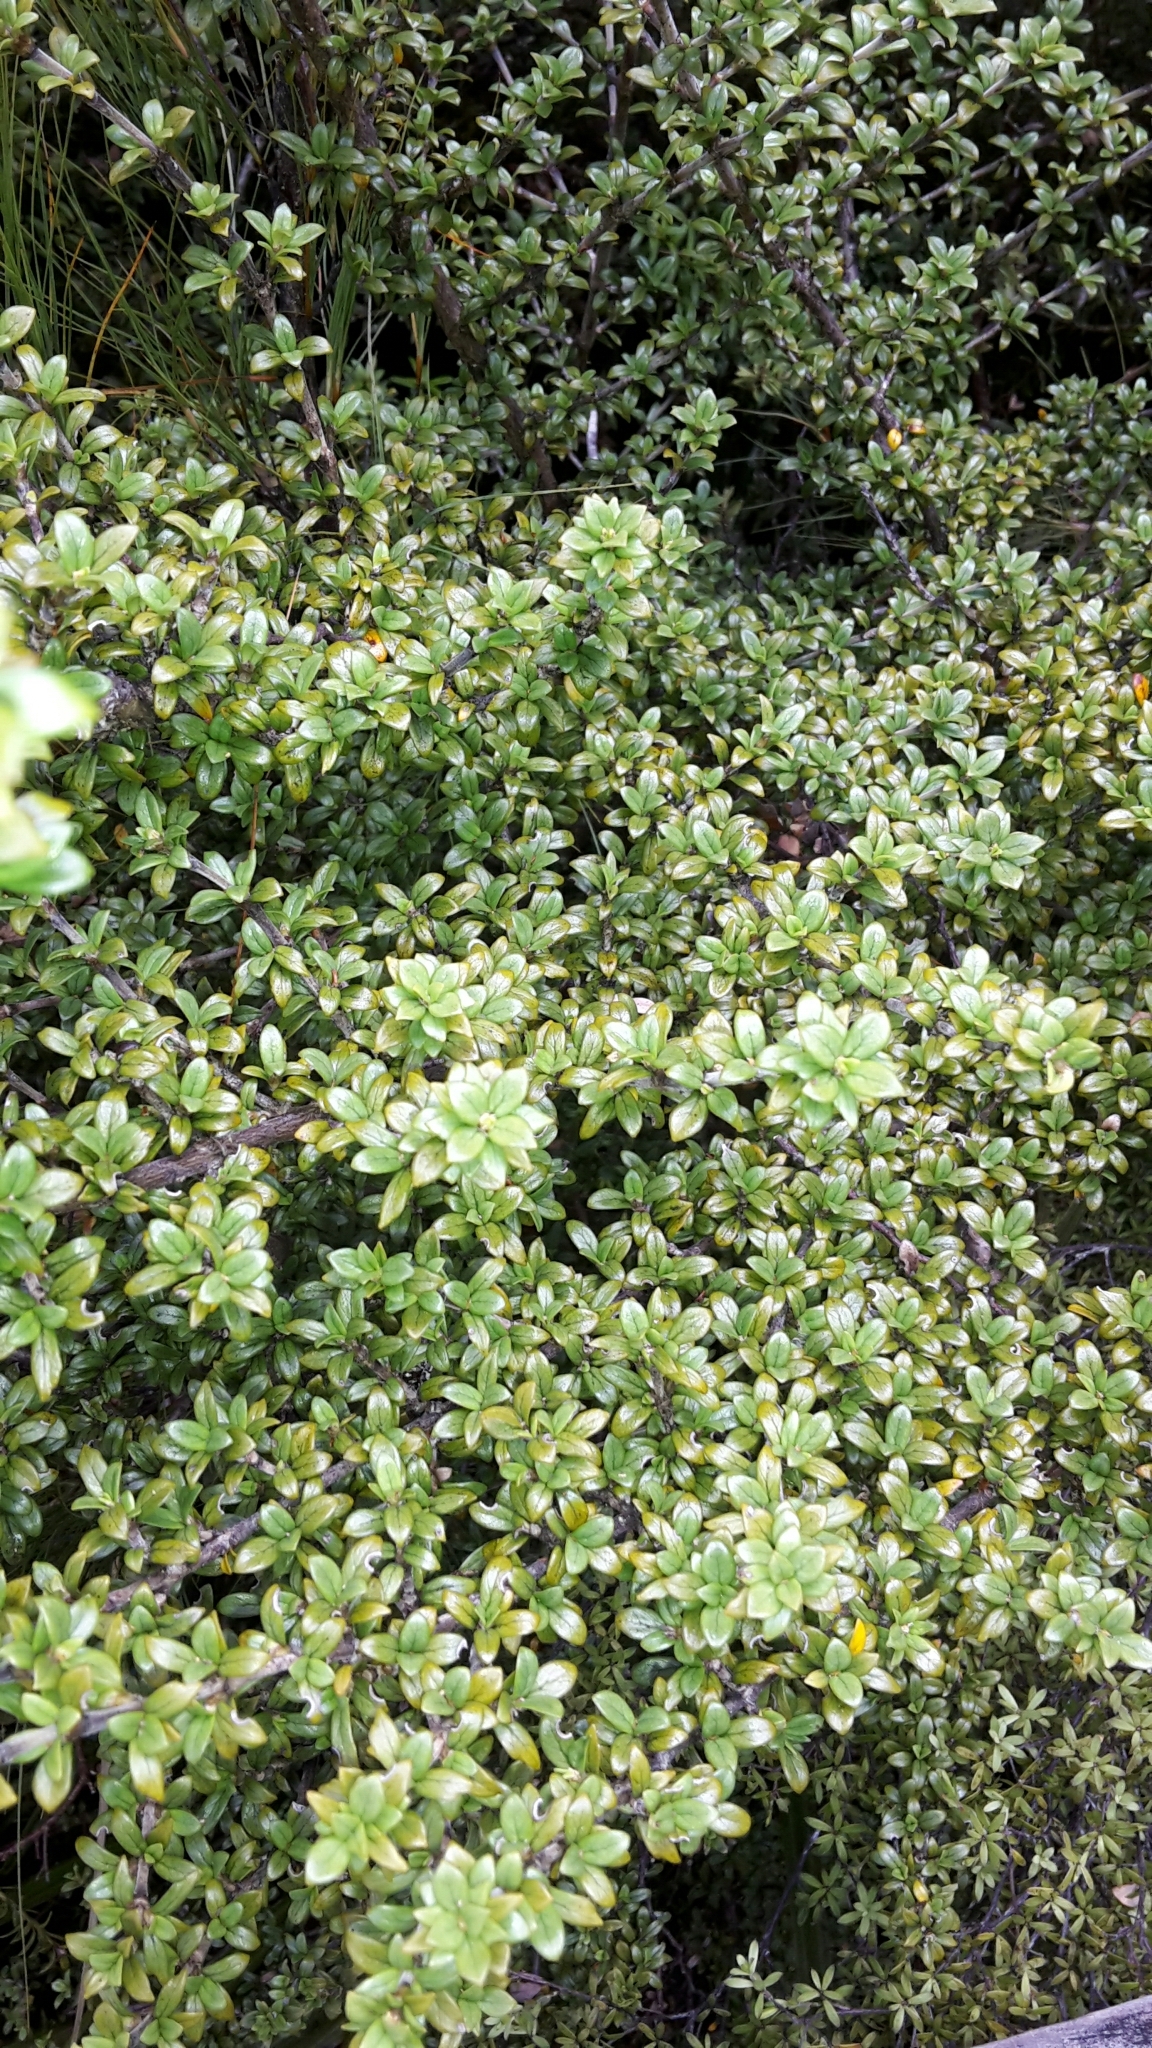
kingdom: Plantae
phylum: Tracheophyta
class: Magnoliopsida
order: Gentianales
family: Rubiaceae
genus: Coprosma
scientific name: Coprosma pseudocuneata
